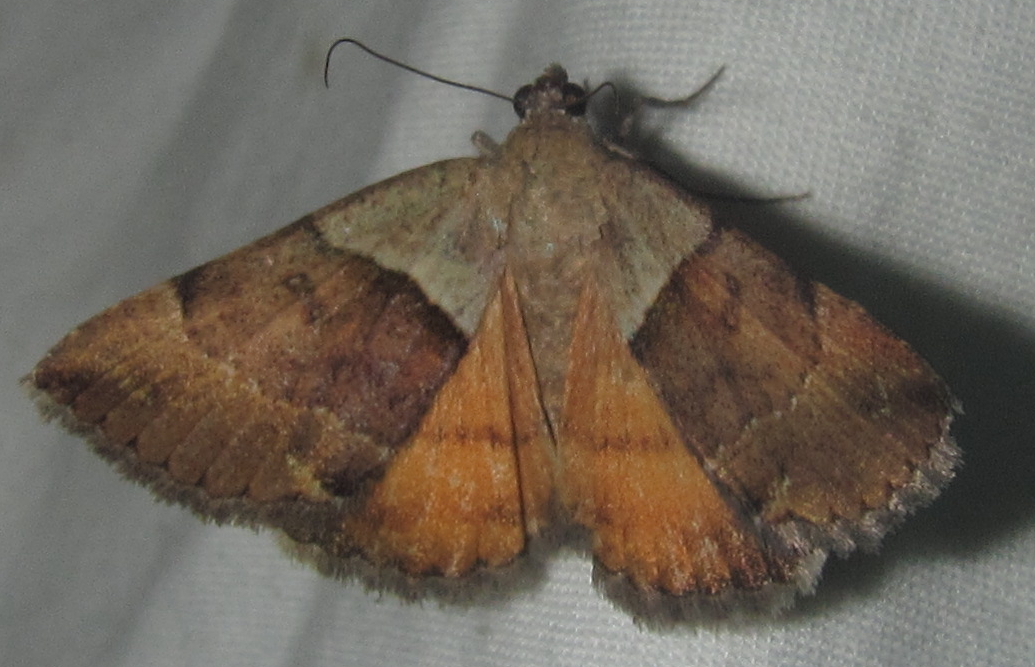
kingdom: Animalia
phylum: Arthropoda
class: Insecta
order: Lepidoptera
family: Erebidae
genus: Plecopterodes
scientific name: Plecopterodes moderata
